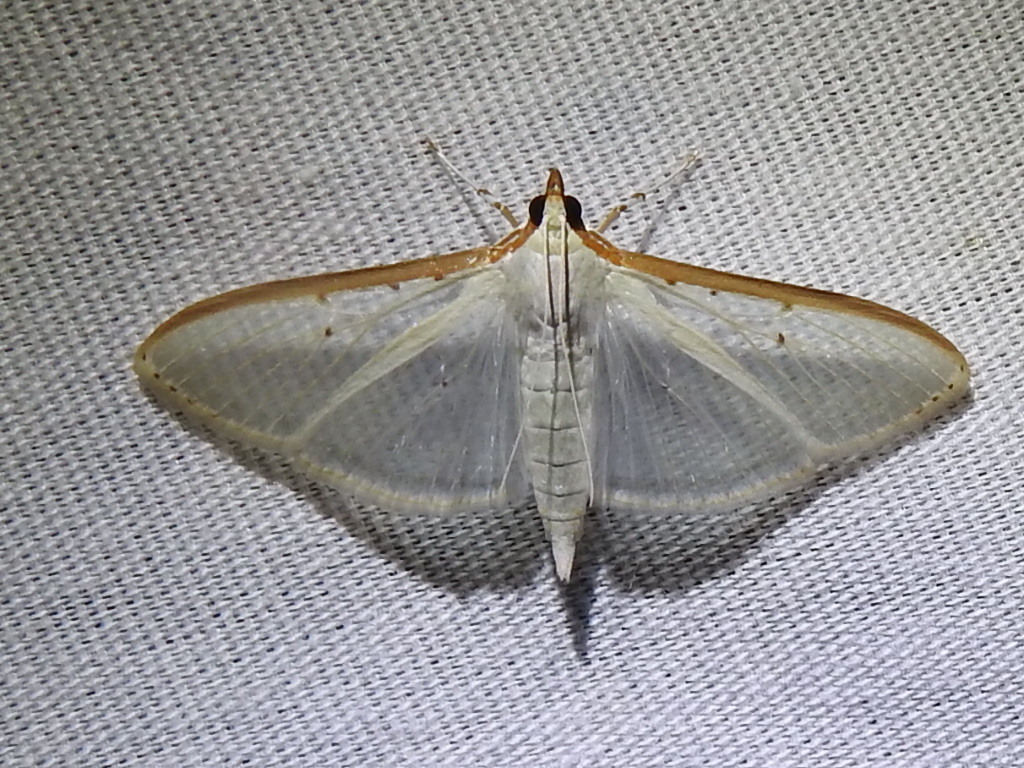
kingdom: Animalia
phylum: Arthropoda
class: Insecta
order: Lepidoptera
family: Crambidae
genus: Palpita
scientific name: Palpita quadristigmalis
